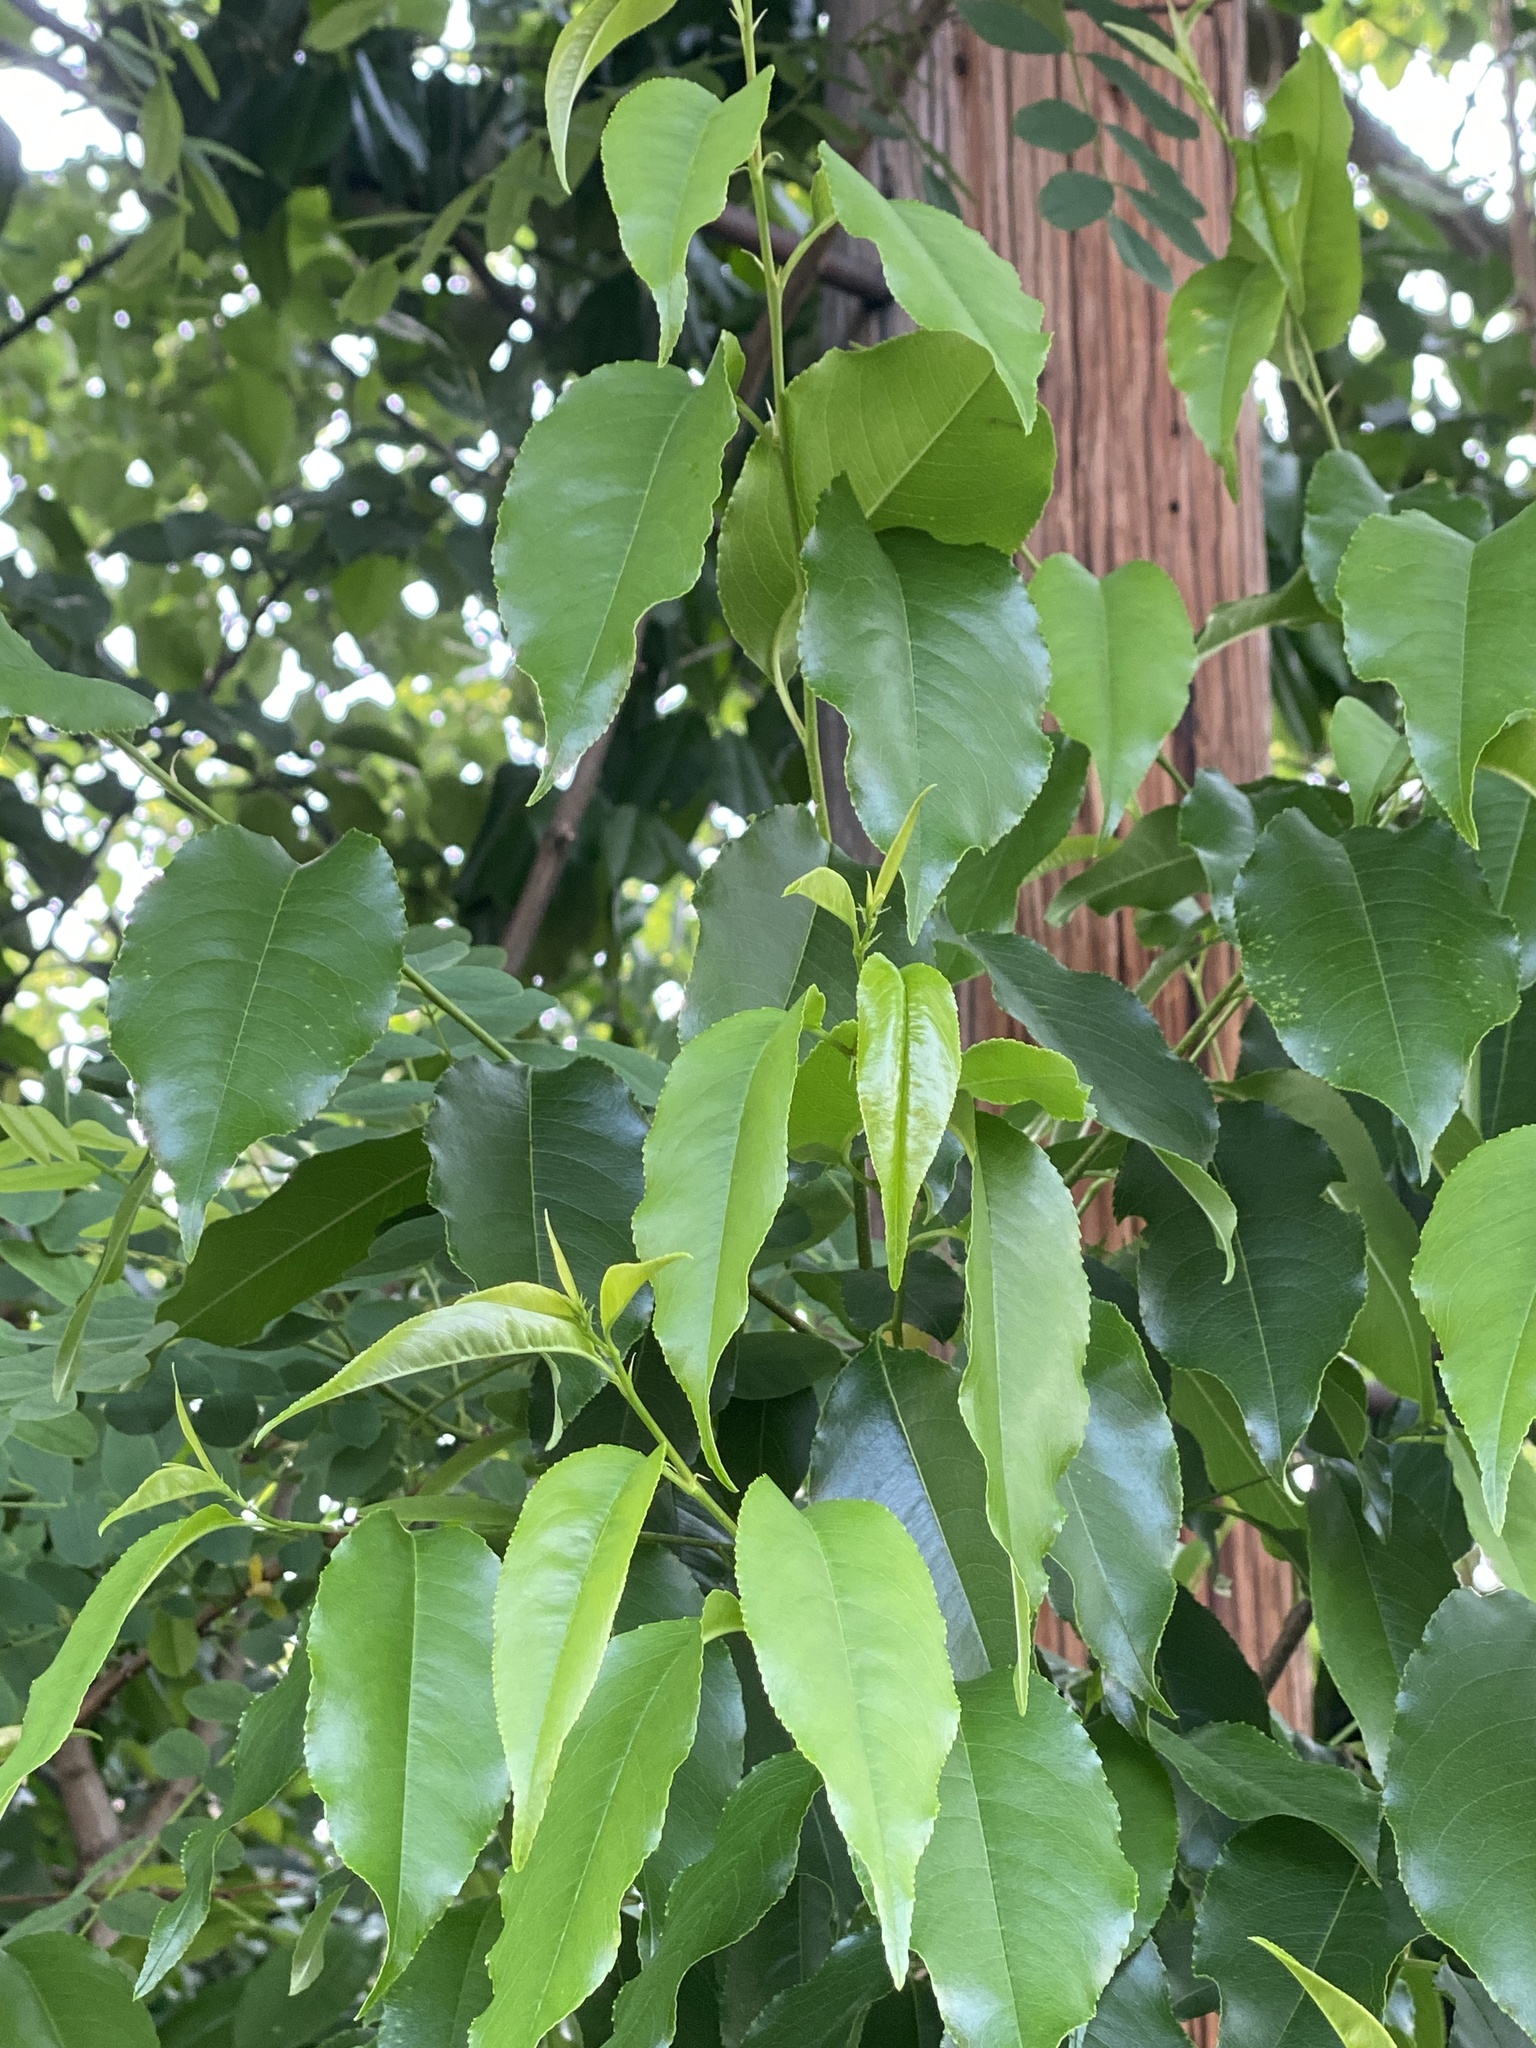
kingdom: Plantae
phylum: Tracheophyta
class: Magnoliopsida
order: Rosales
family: Rosaceae
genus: Prunus
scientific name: Prunus serotina
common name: Black cherry
